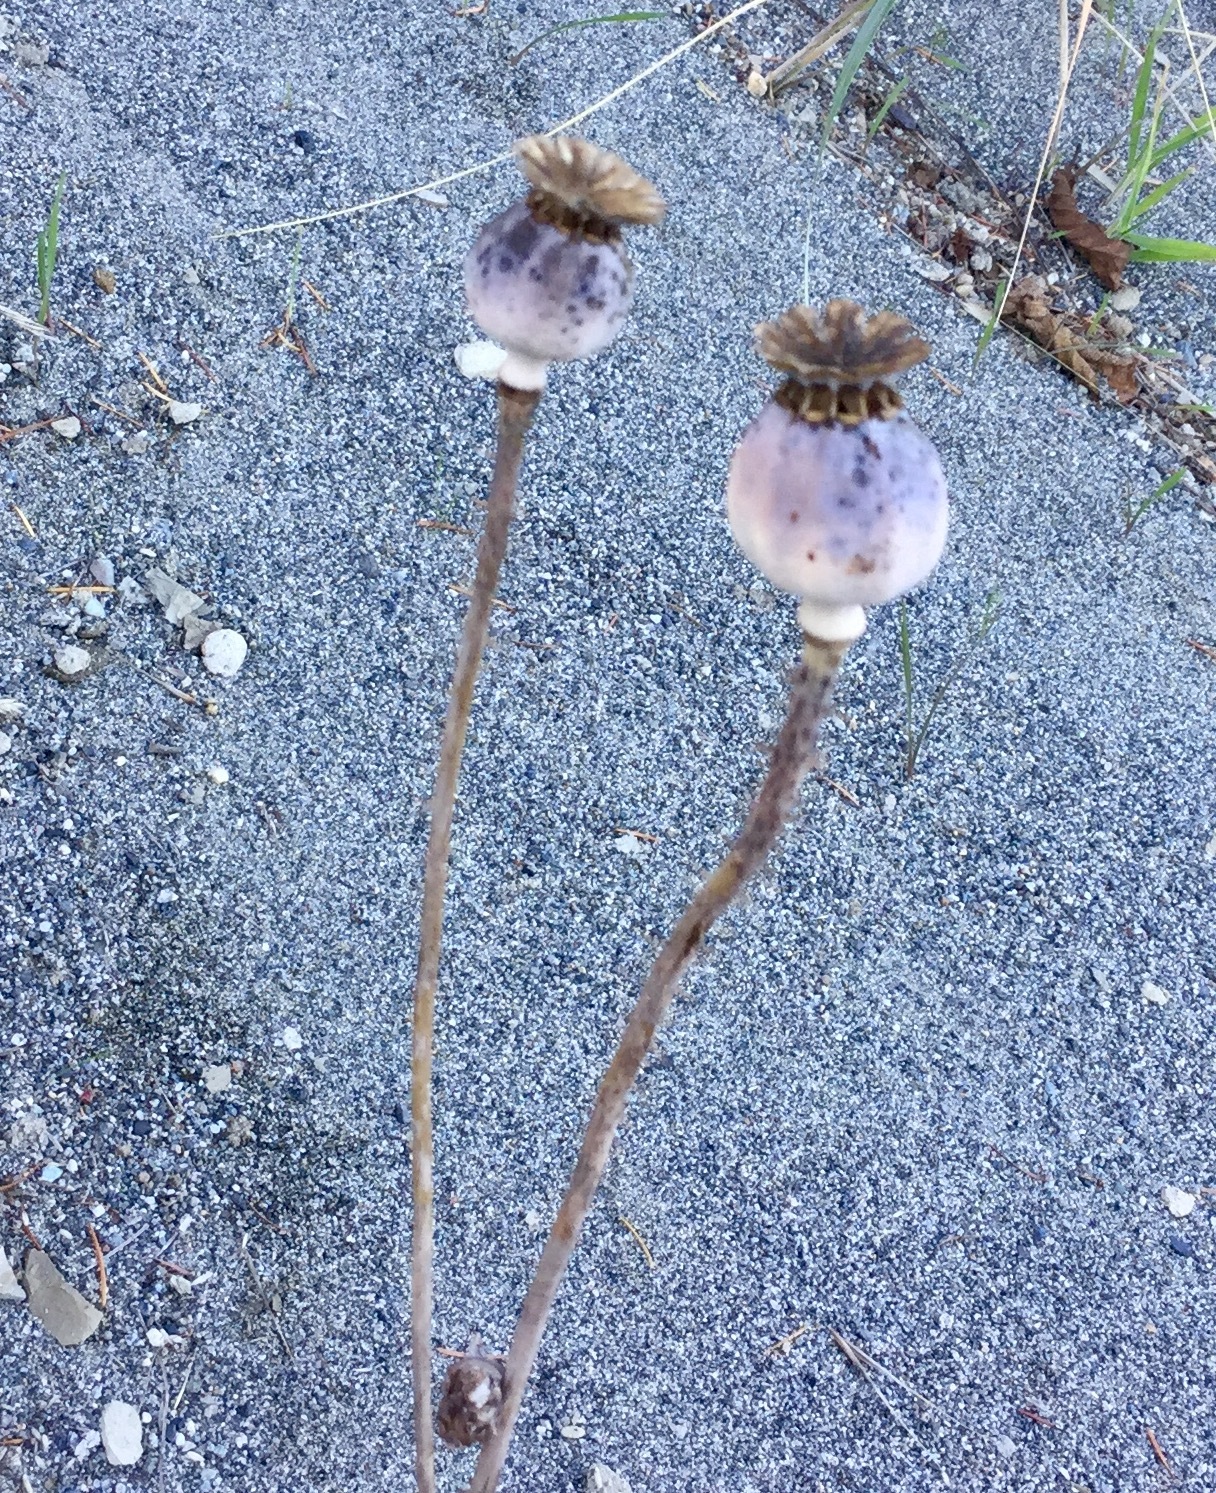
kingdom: Plantae
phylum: Tracheophyta
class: Magnoliopsida
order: Ranunculales
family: Papaveraceae
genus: Papaver
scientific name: Papaver somniferum
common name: Opium poppy
